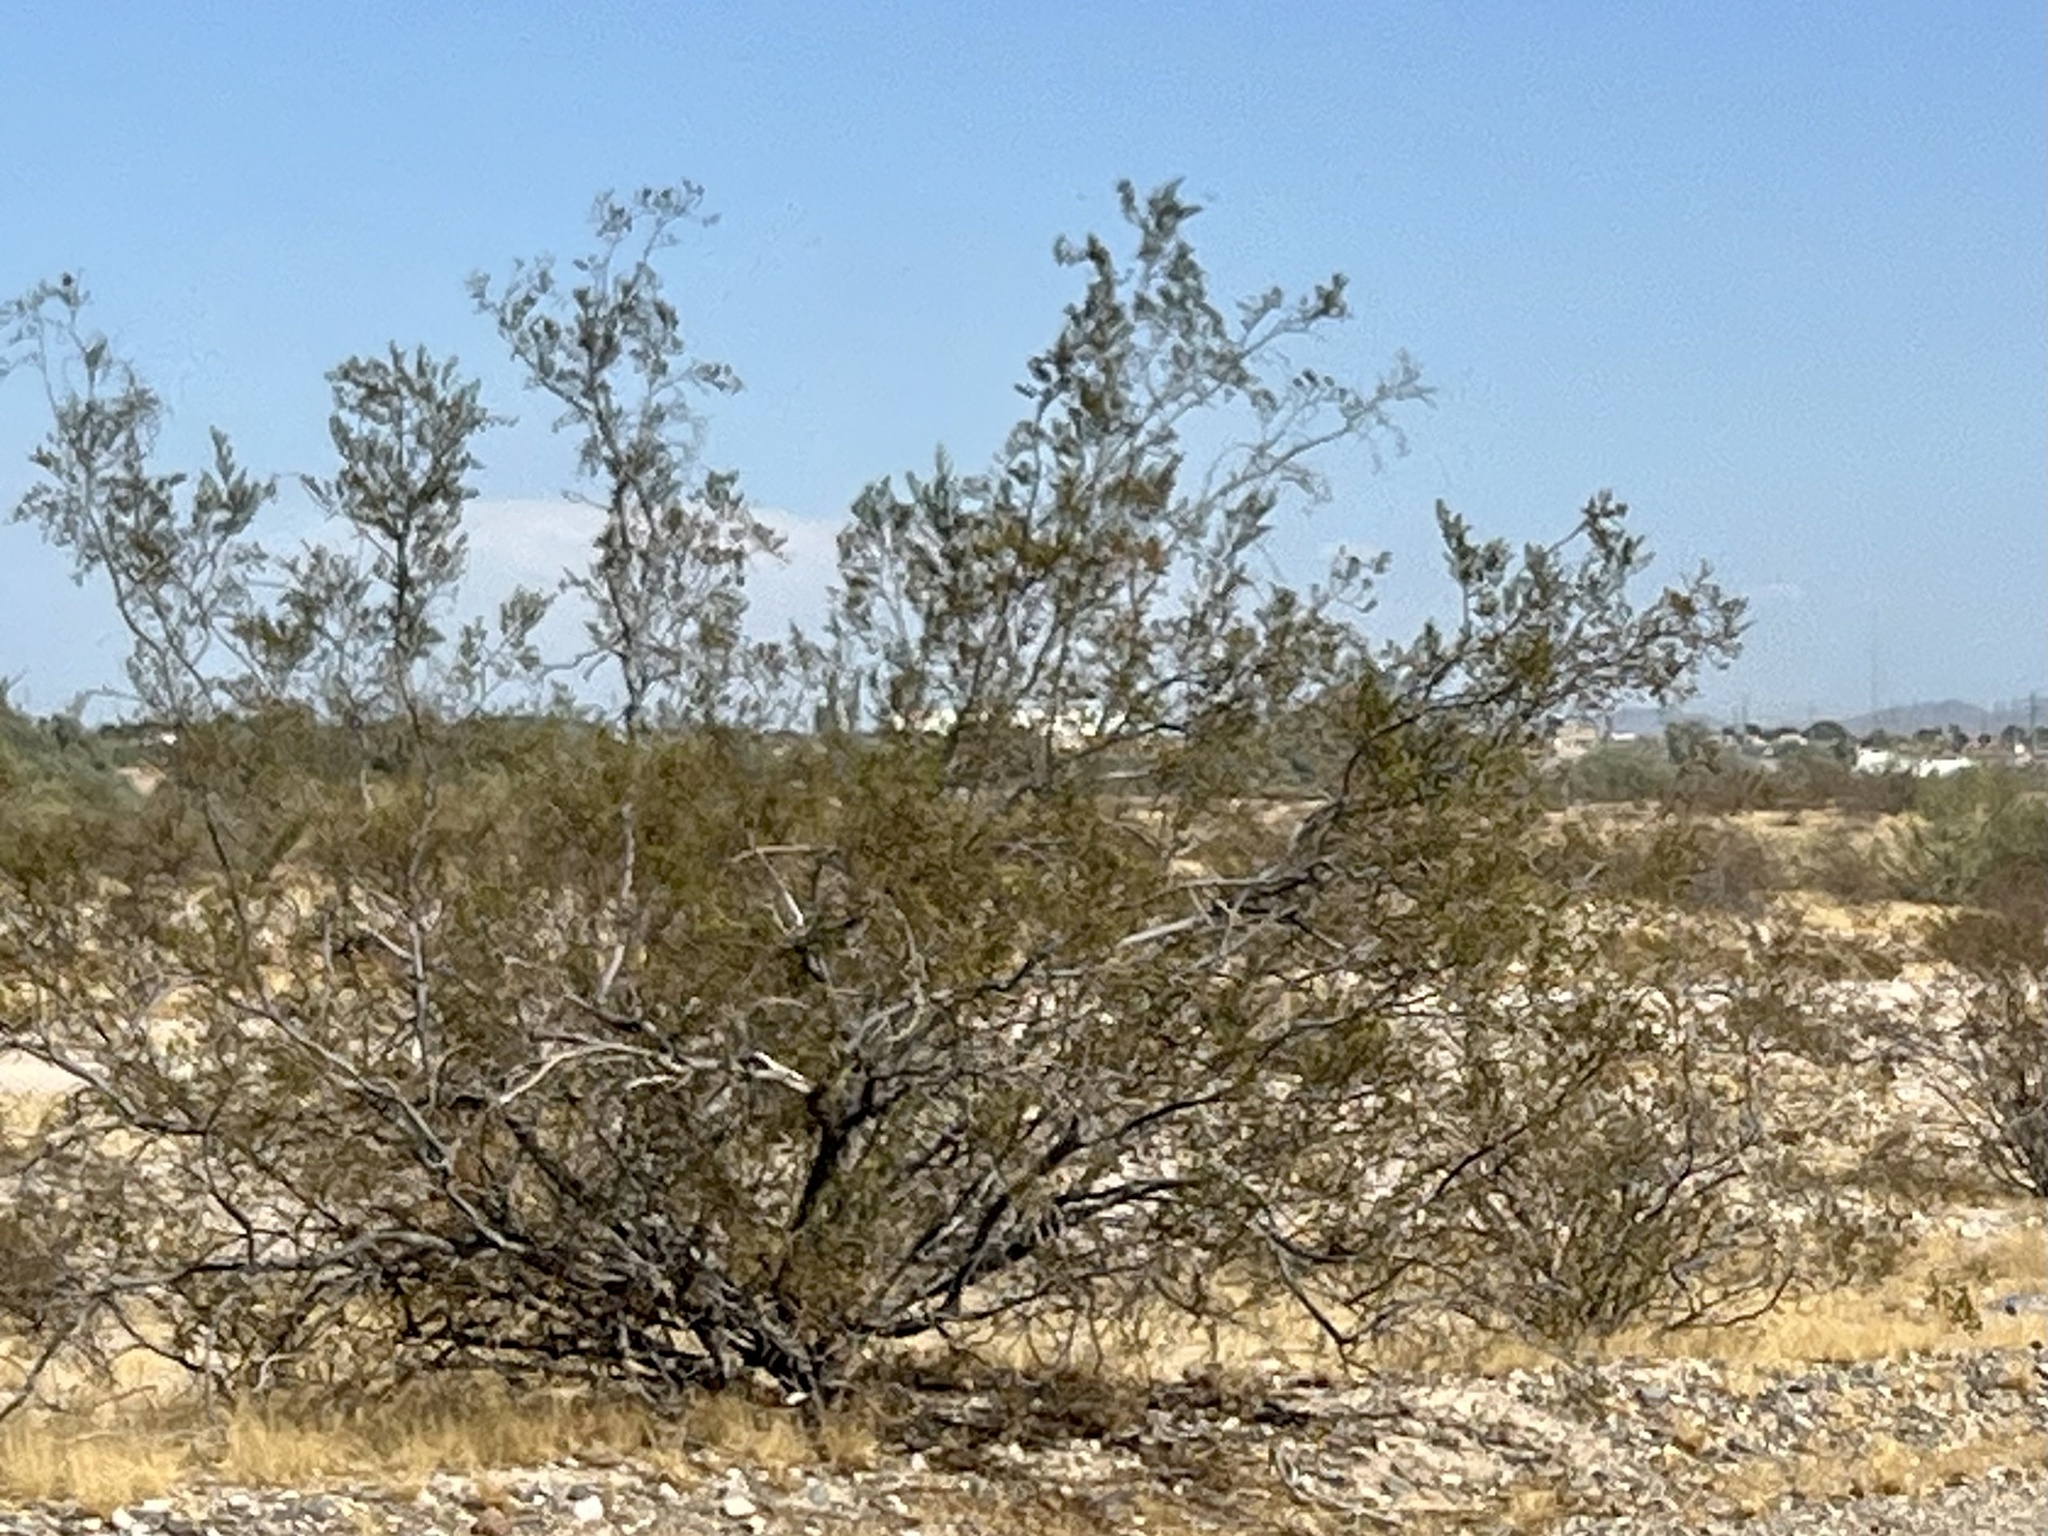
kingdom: Plantae
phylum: Tracheophyta
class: Magnoliopsida
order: Zygophyllales
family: Zygophyllaceae
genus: Larrea
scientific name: Larrea tridentata
